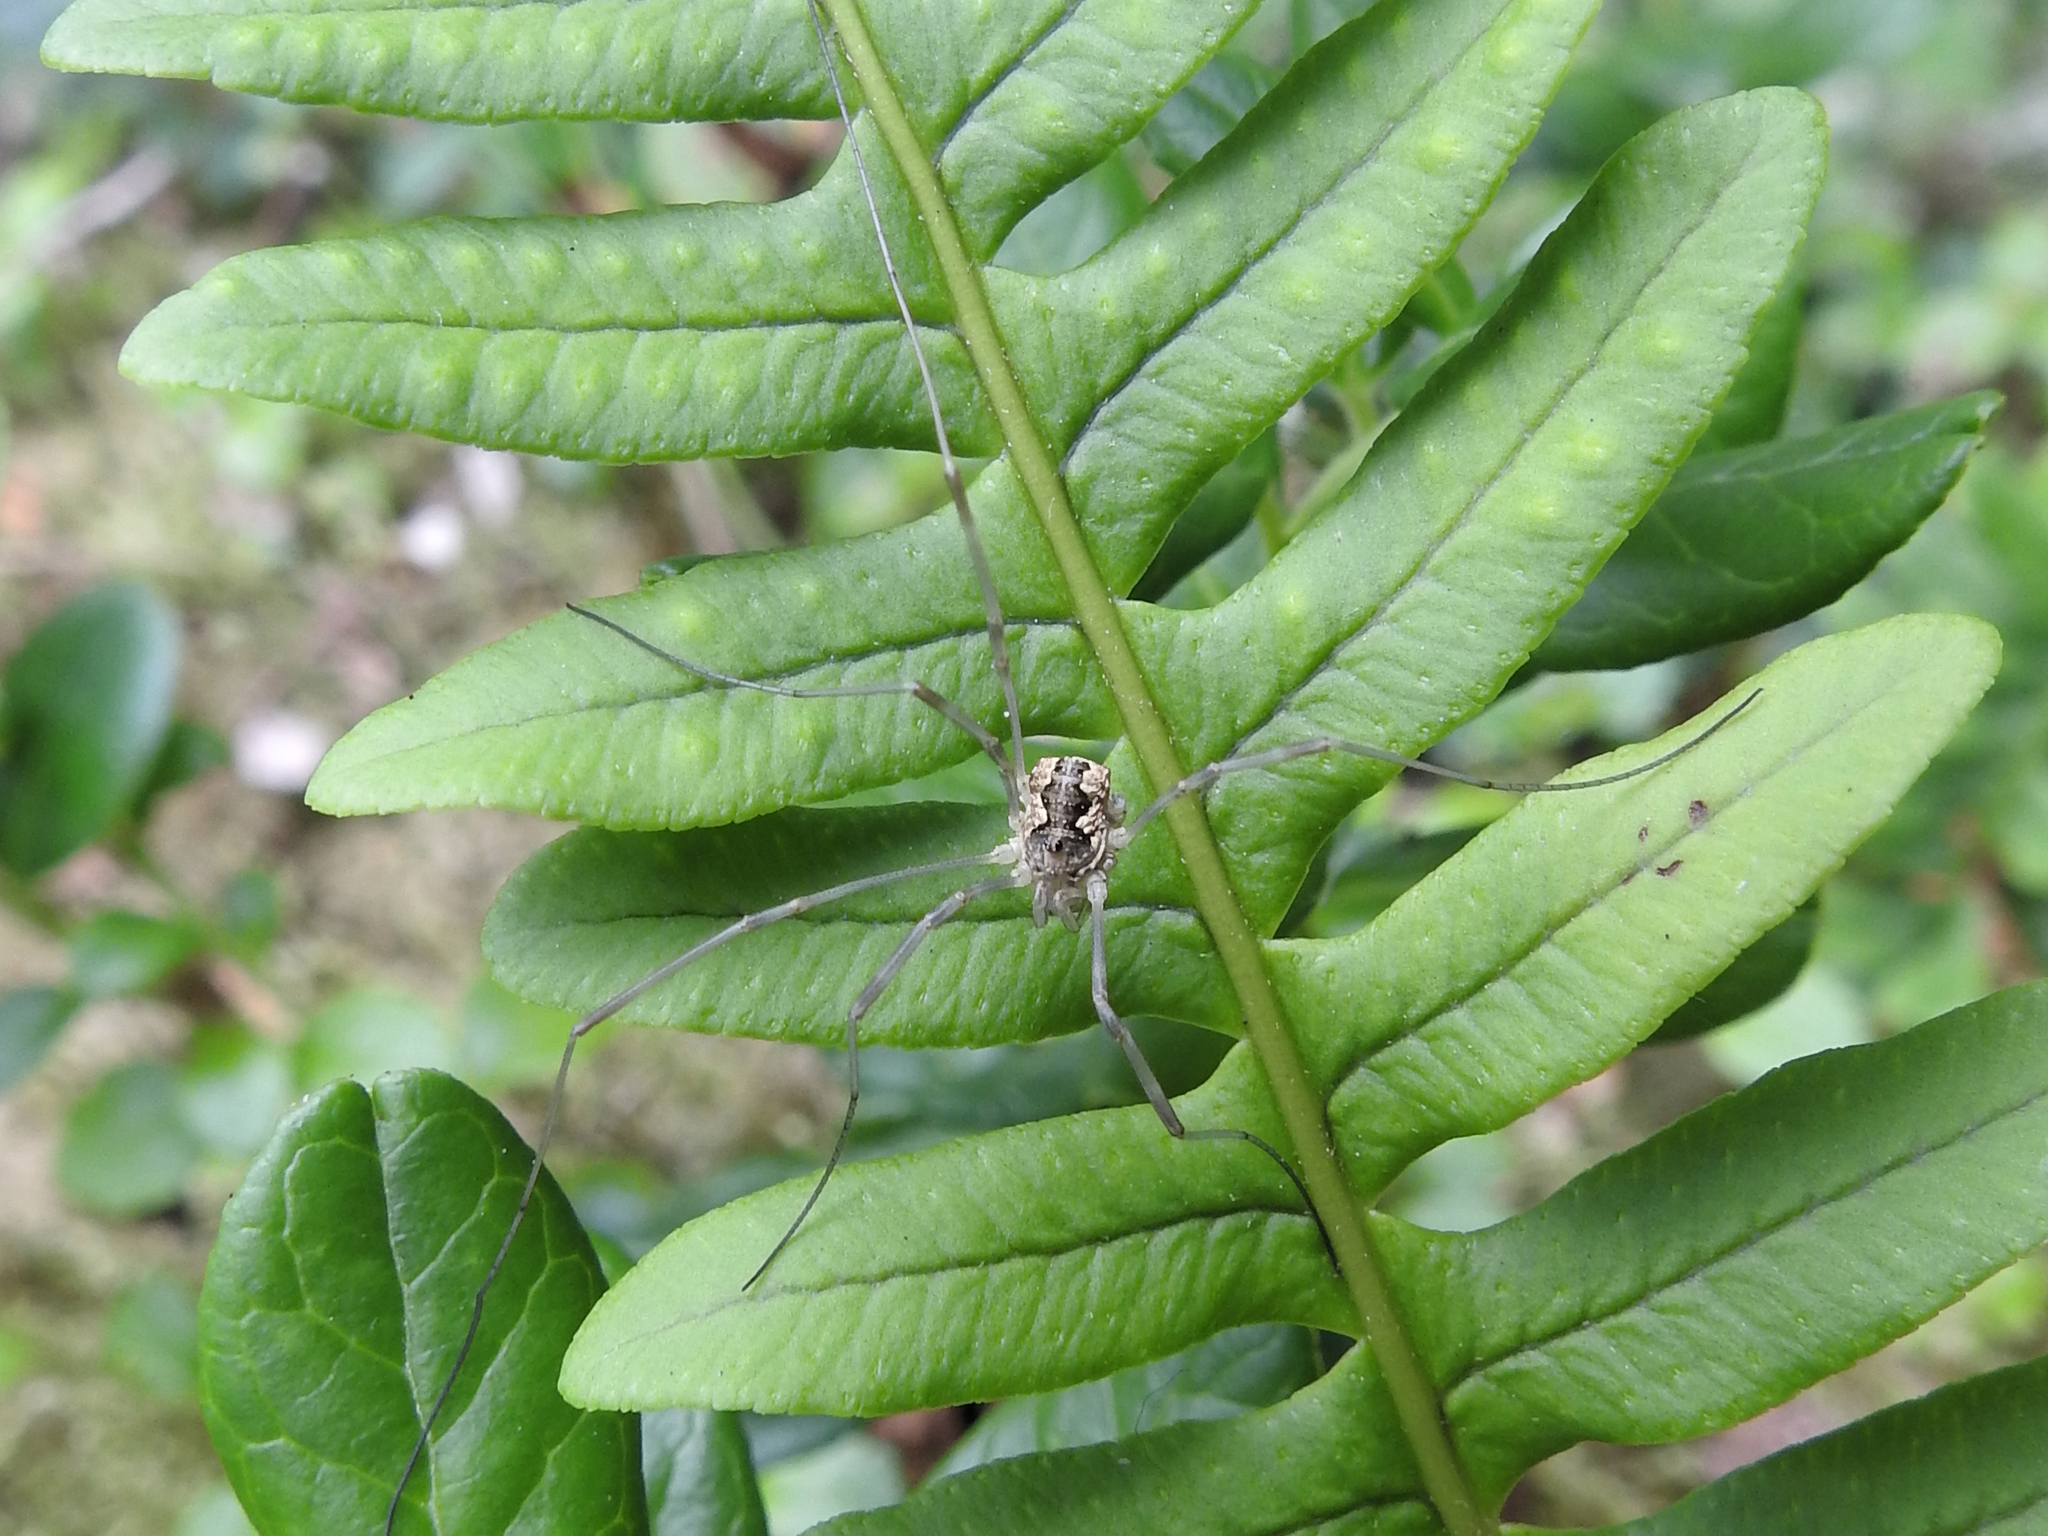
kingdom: Animalia
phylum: Arthropoda
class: Arachnida
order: Opiliones
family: Phalangiidae
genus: Mitopus
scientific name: Mitopus morio
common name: Saddleback harvestman
